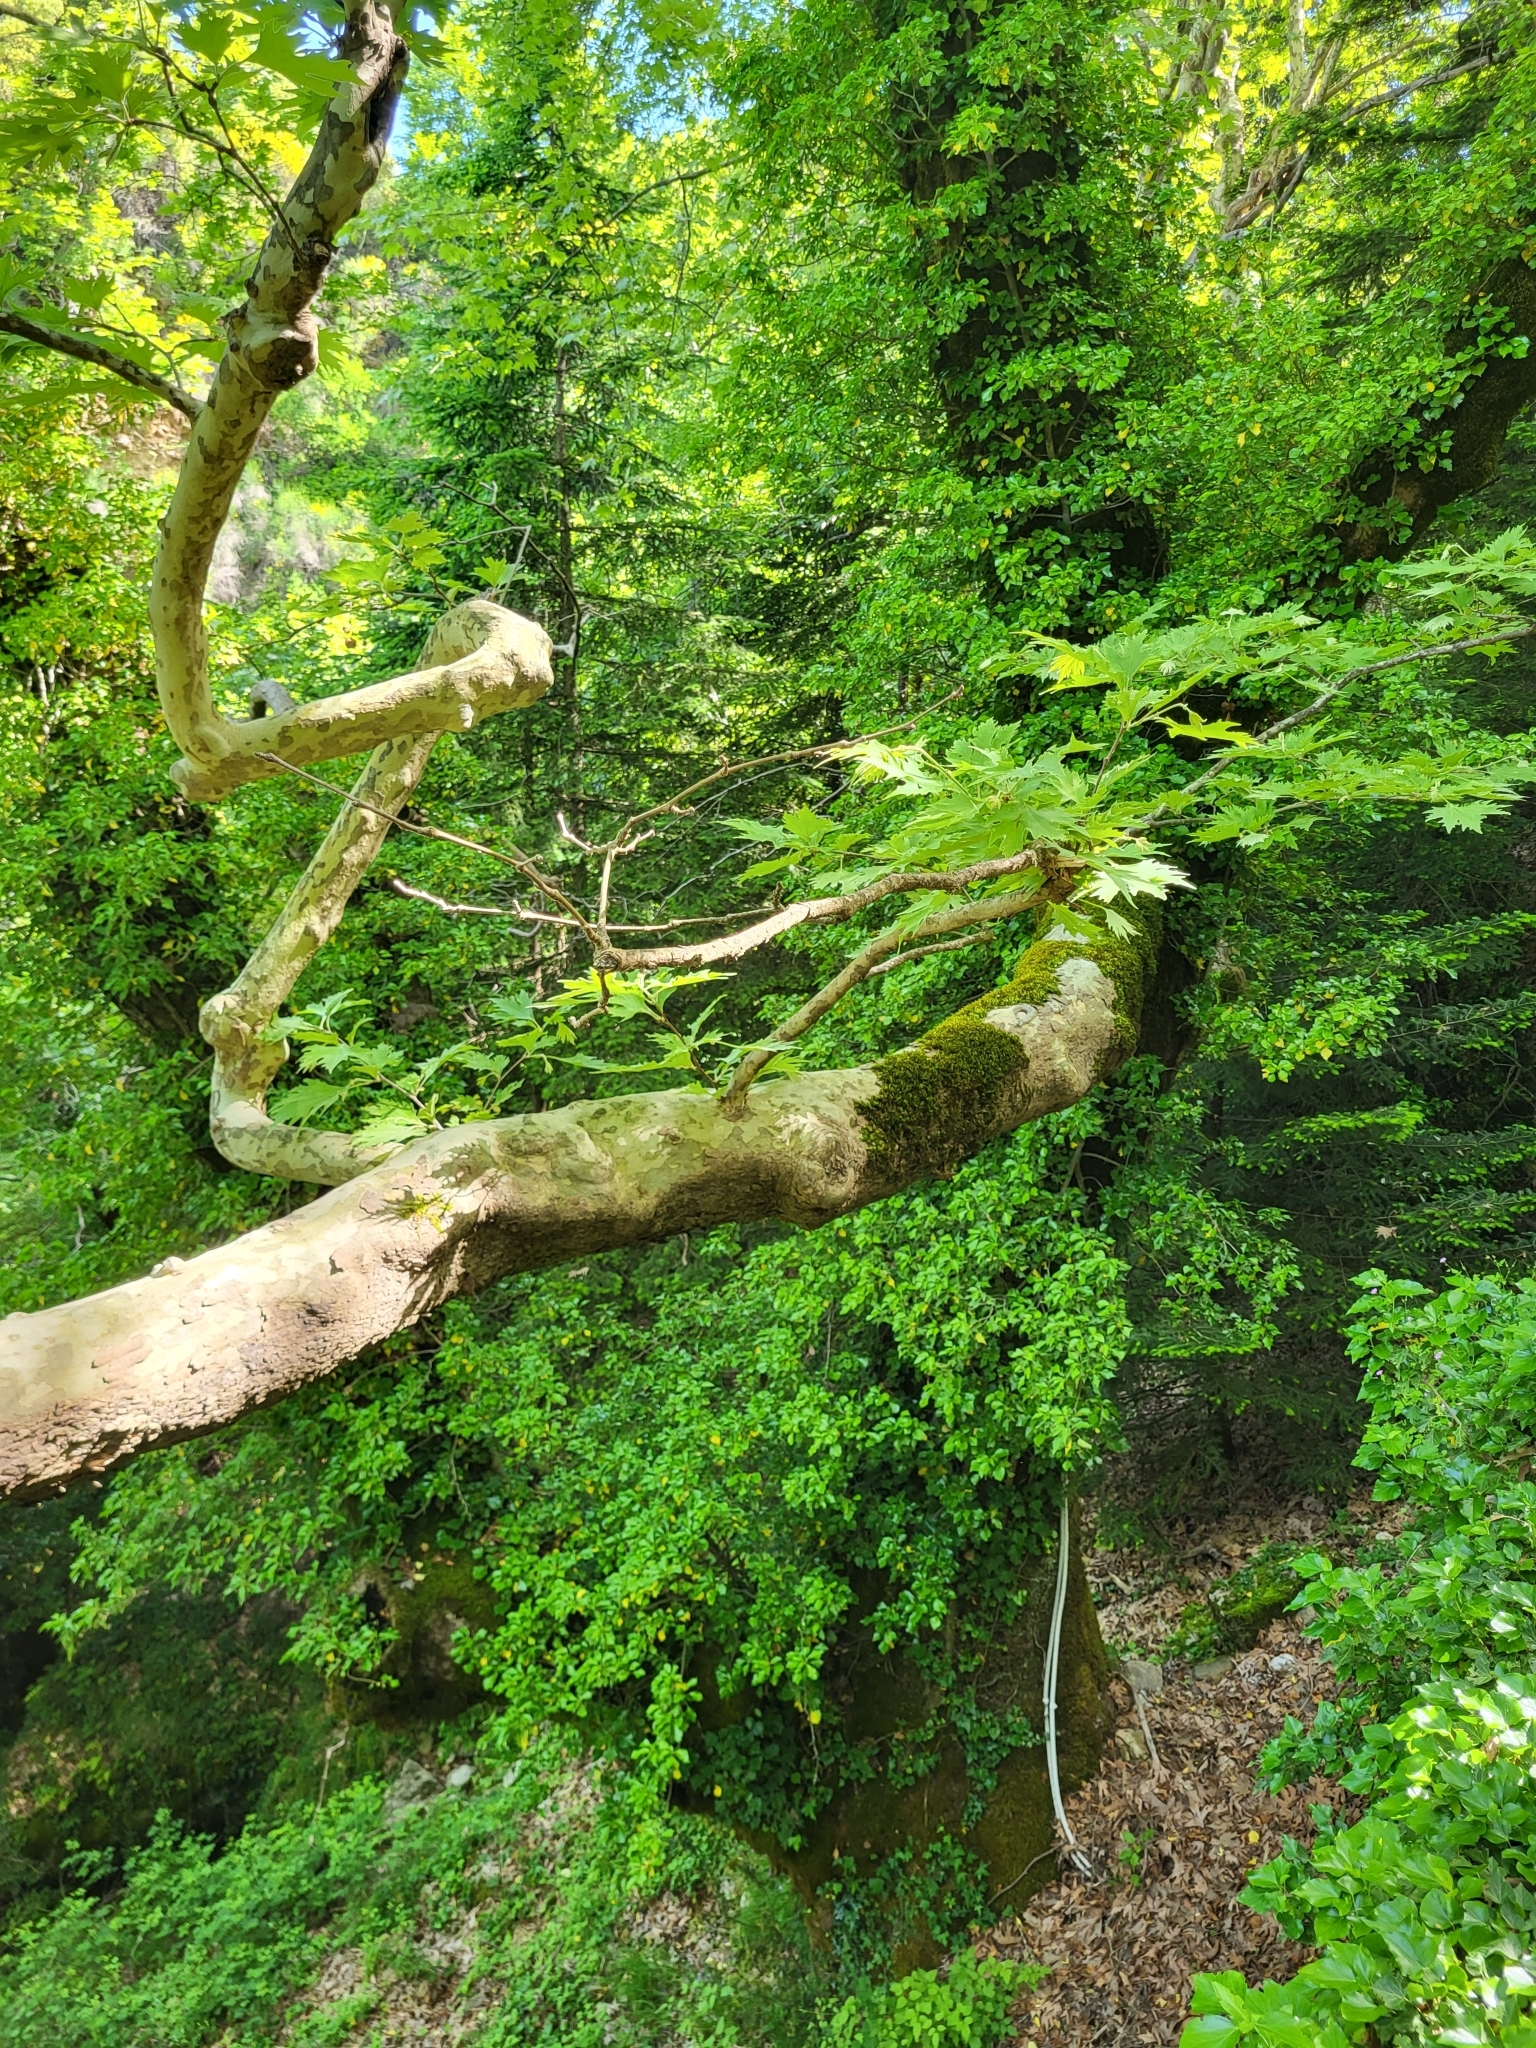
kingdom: Plantae
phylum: Tracheophyta
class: Magnoliopsida
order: Proteales
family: Platanaceae
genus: Platanus
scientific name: Platanus orientalis
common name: Oriental plane
